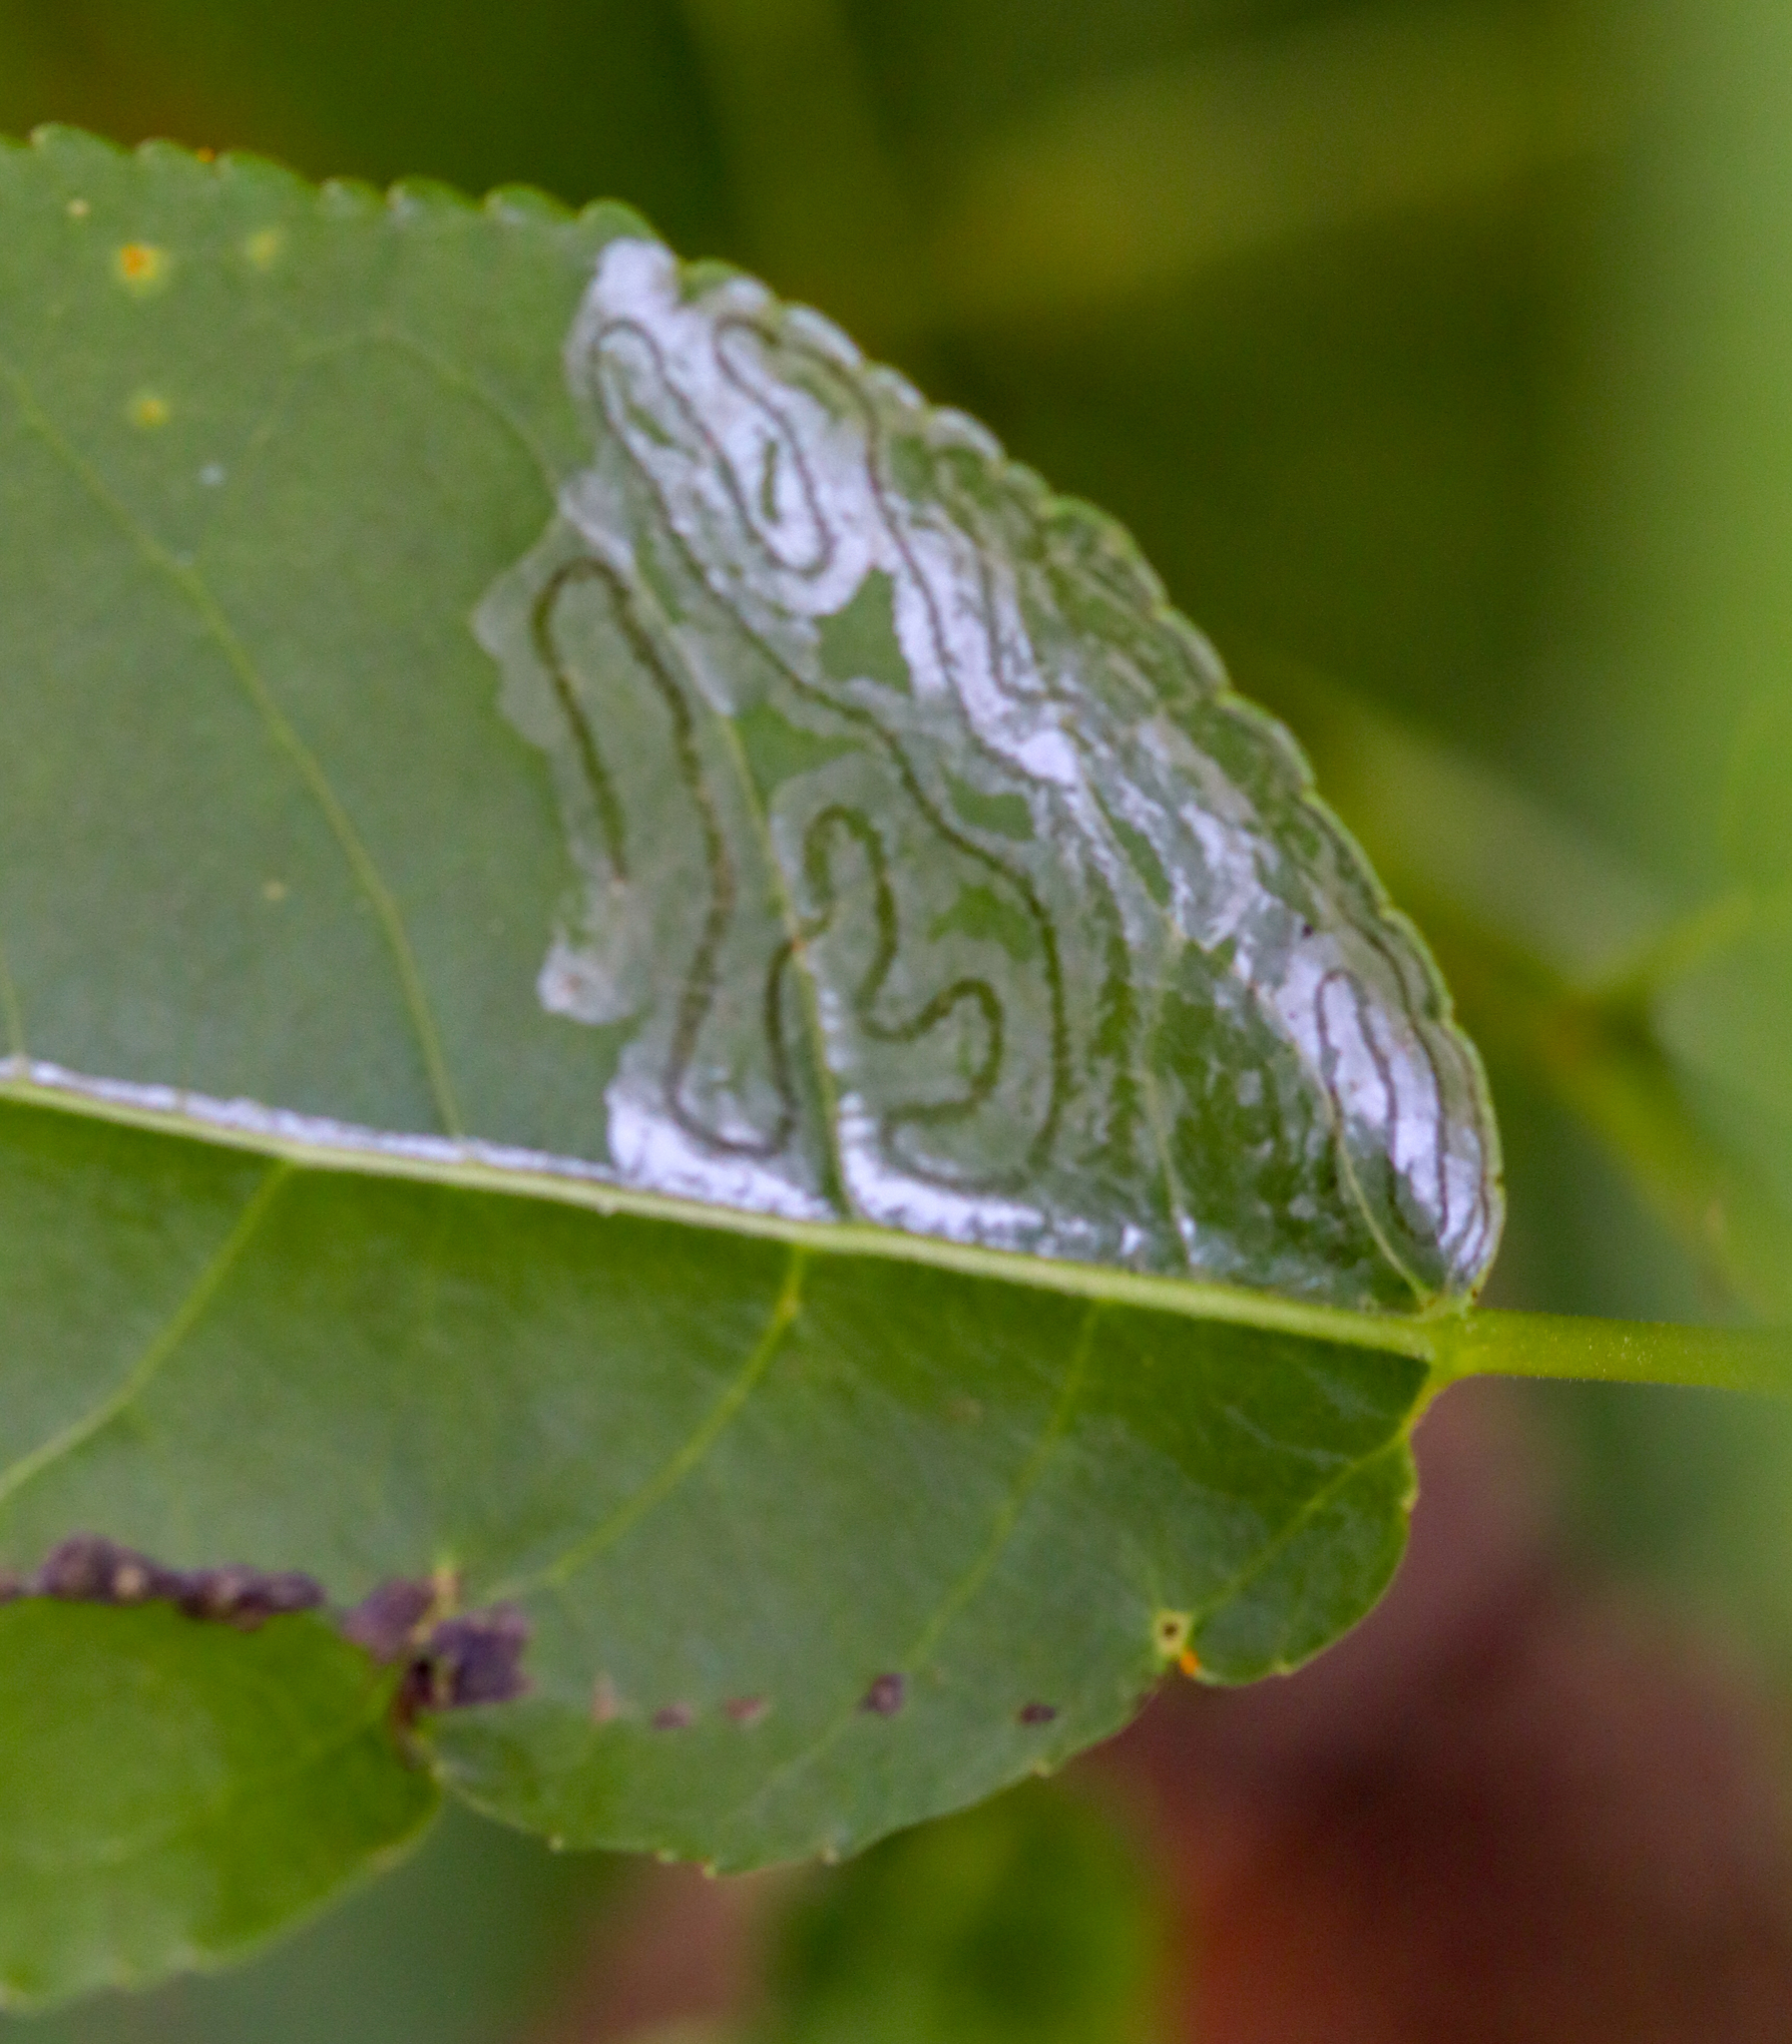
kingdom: Animalia
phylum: Arthropoda
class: Insecta
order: Lepidoptera
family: Gracillariidae
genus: Phyllocnistis
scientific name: Phyllocnistis populiella
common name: Aspen serpentine leafminer moth
